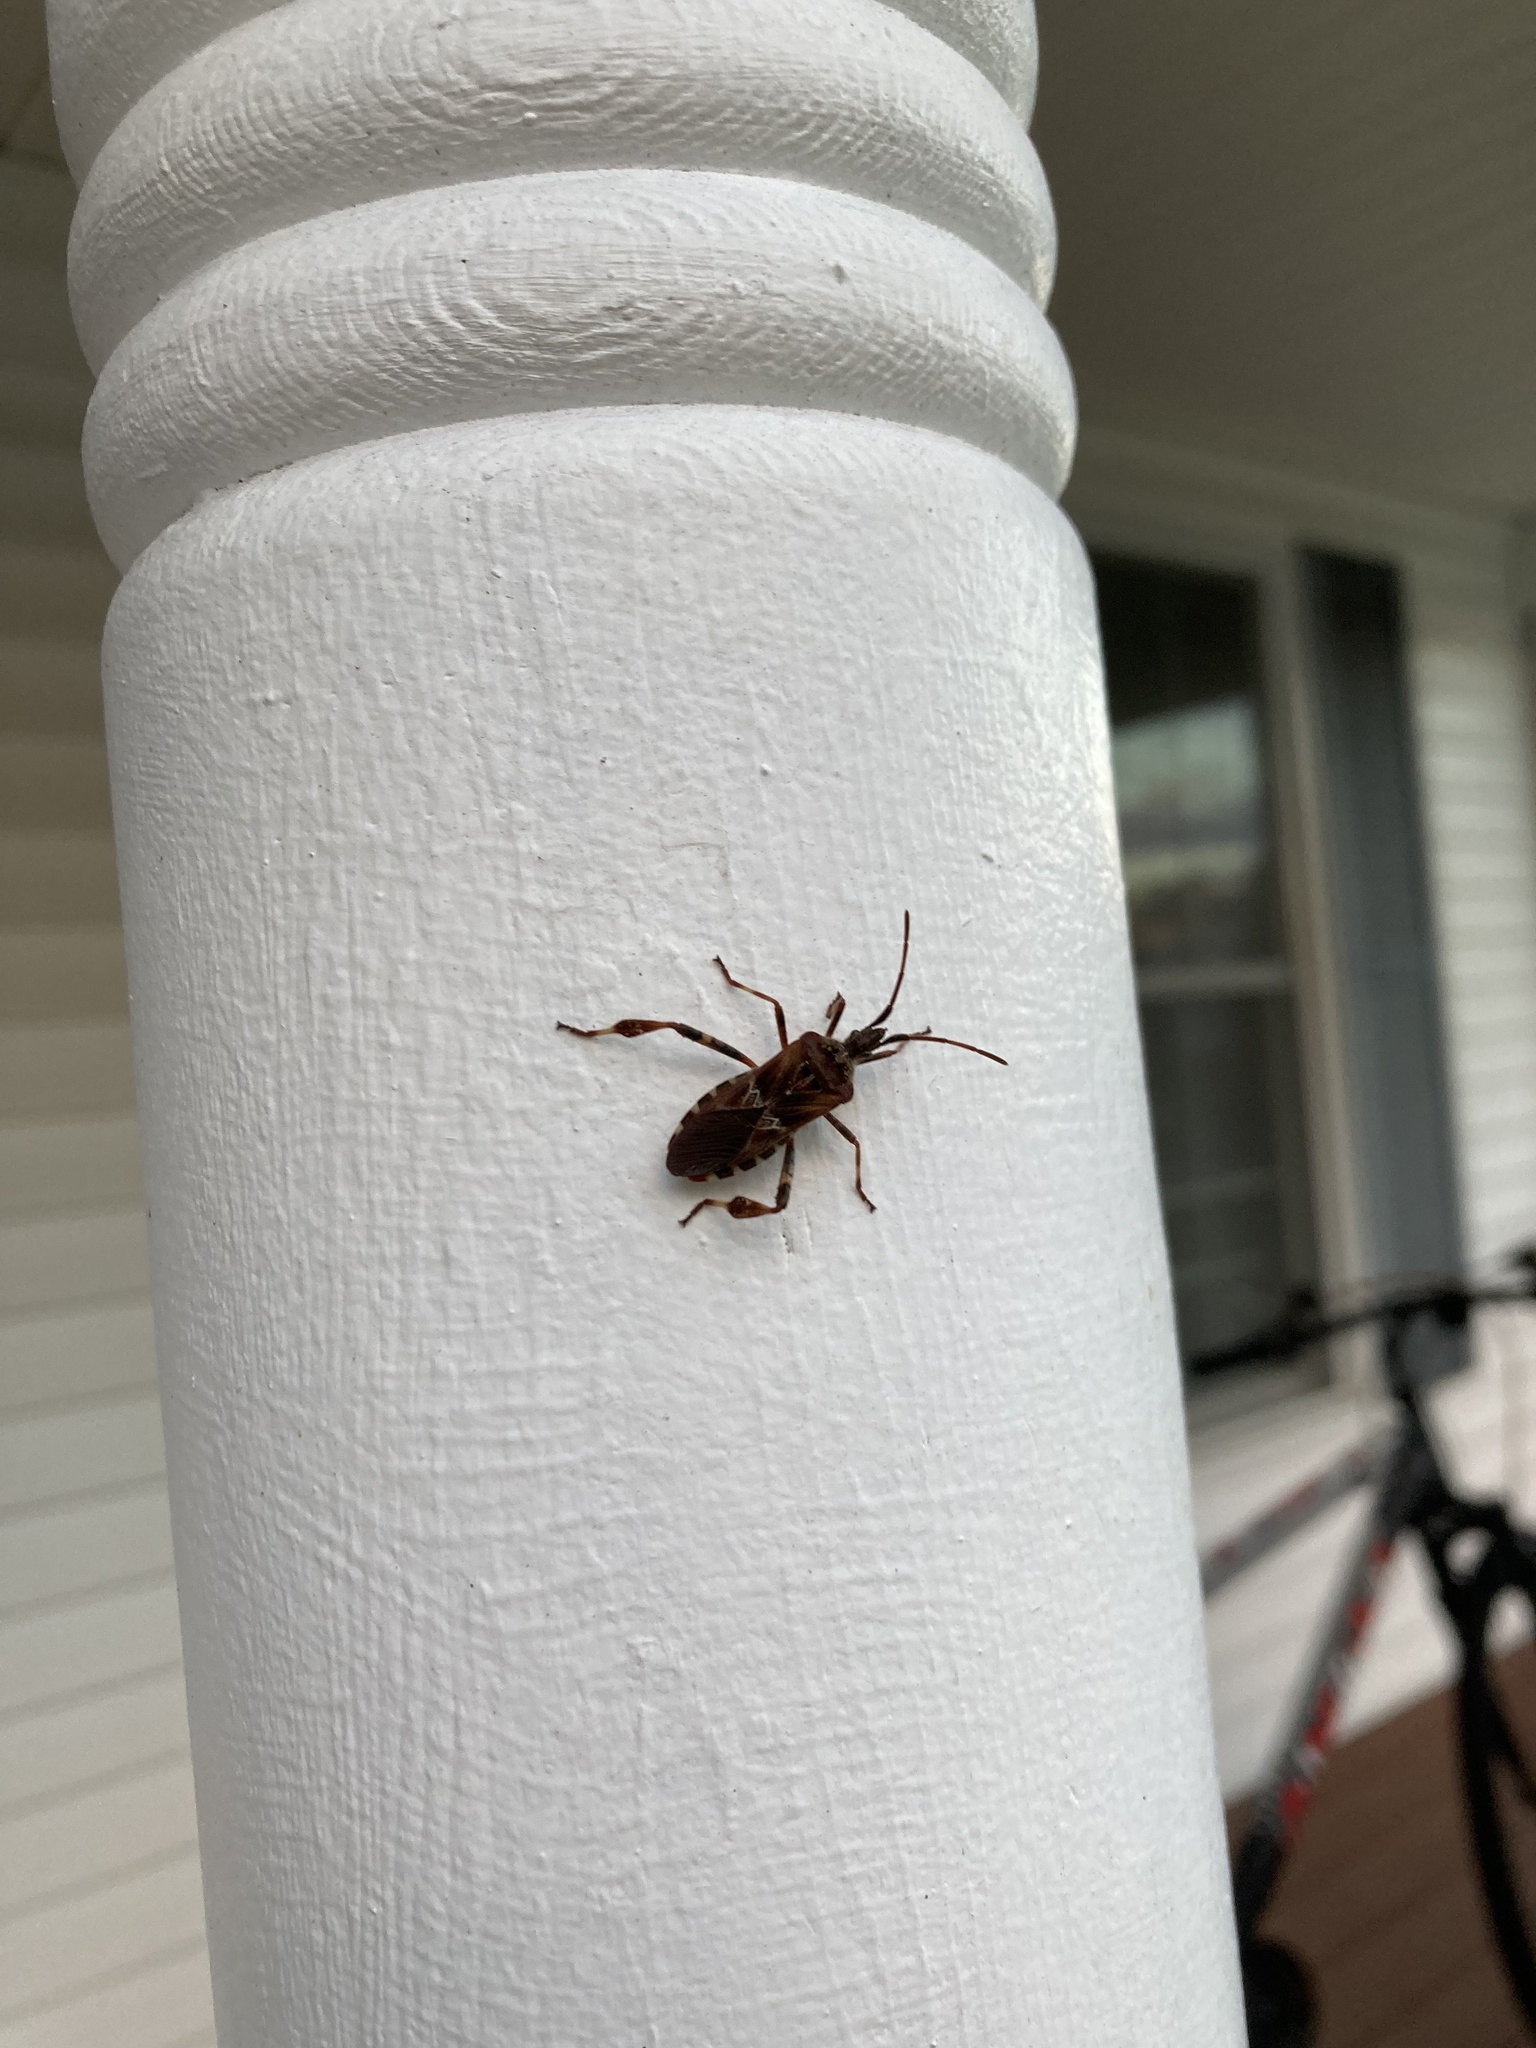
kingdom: Animalia
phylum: Arthropoda
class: Insecta
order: Hemiptera
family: Coreidae
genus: Leptoglossus
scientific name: Leptoglossus occidentalis
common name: Western conifer-seed bug
